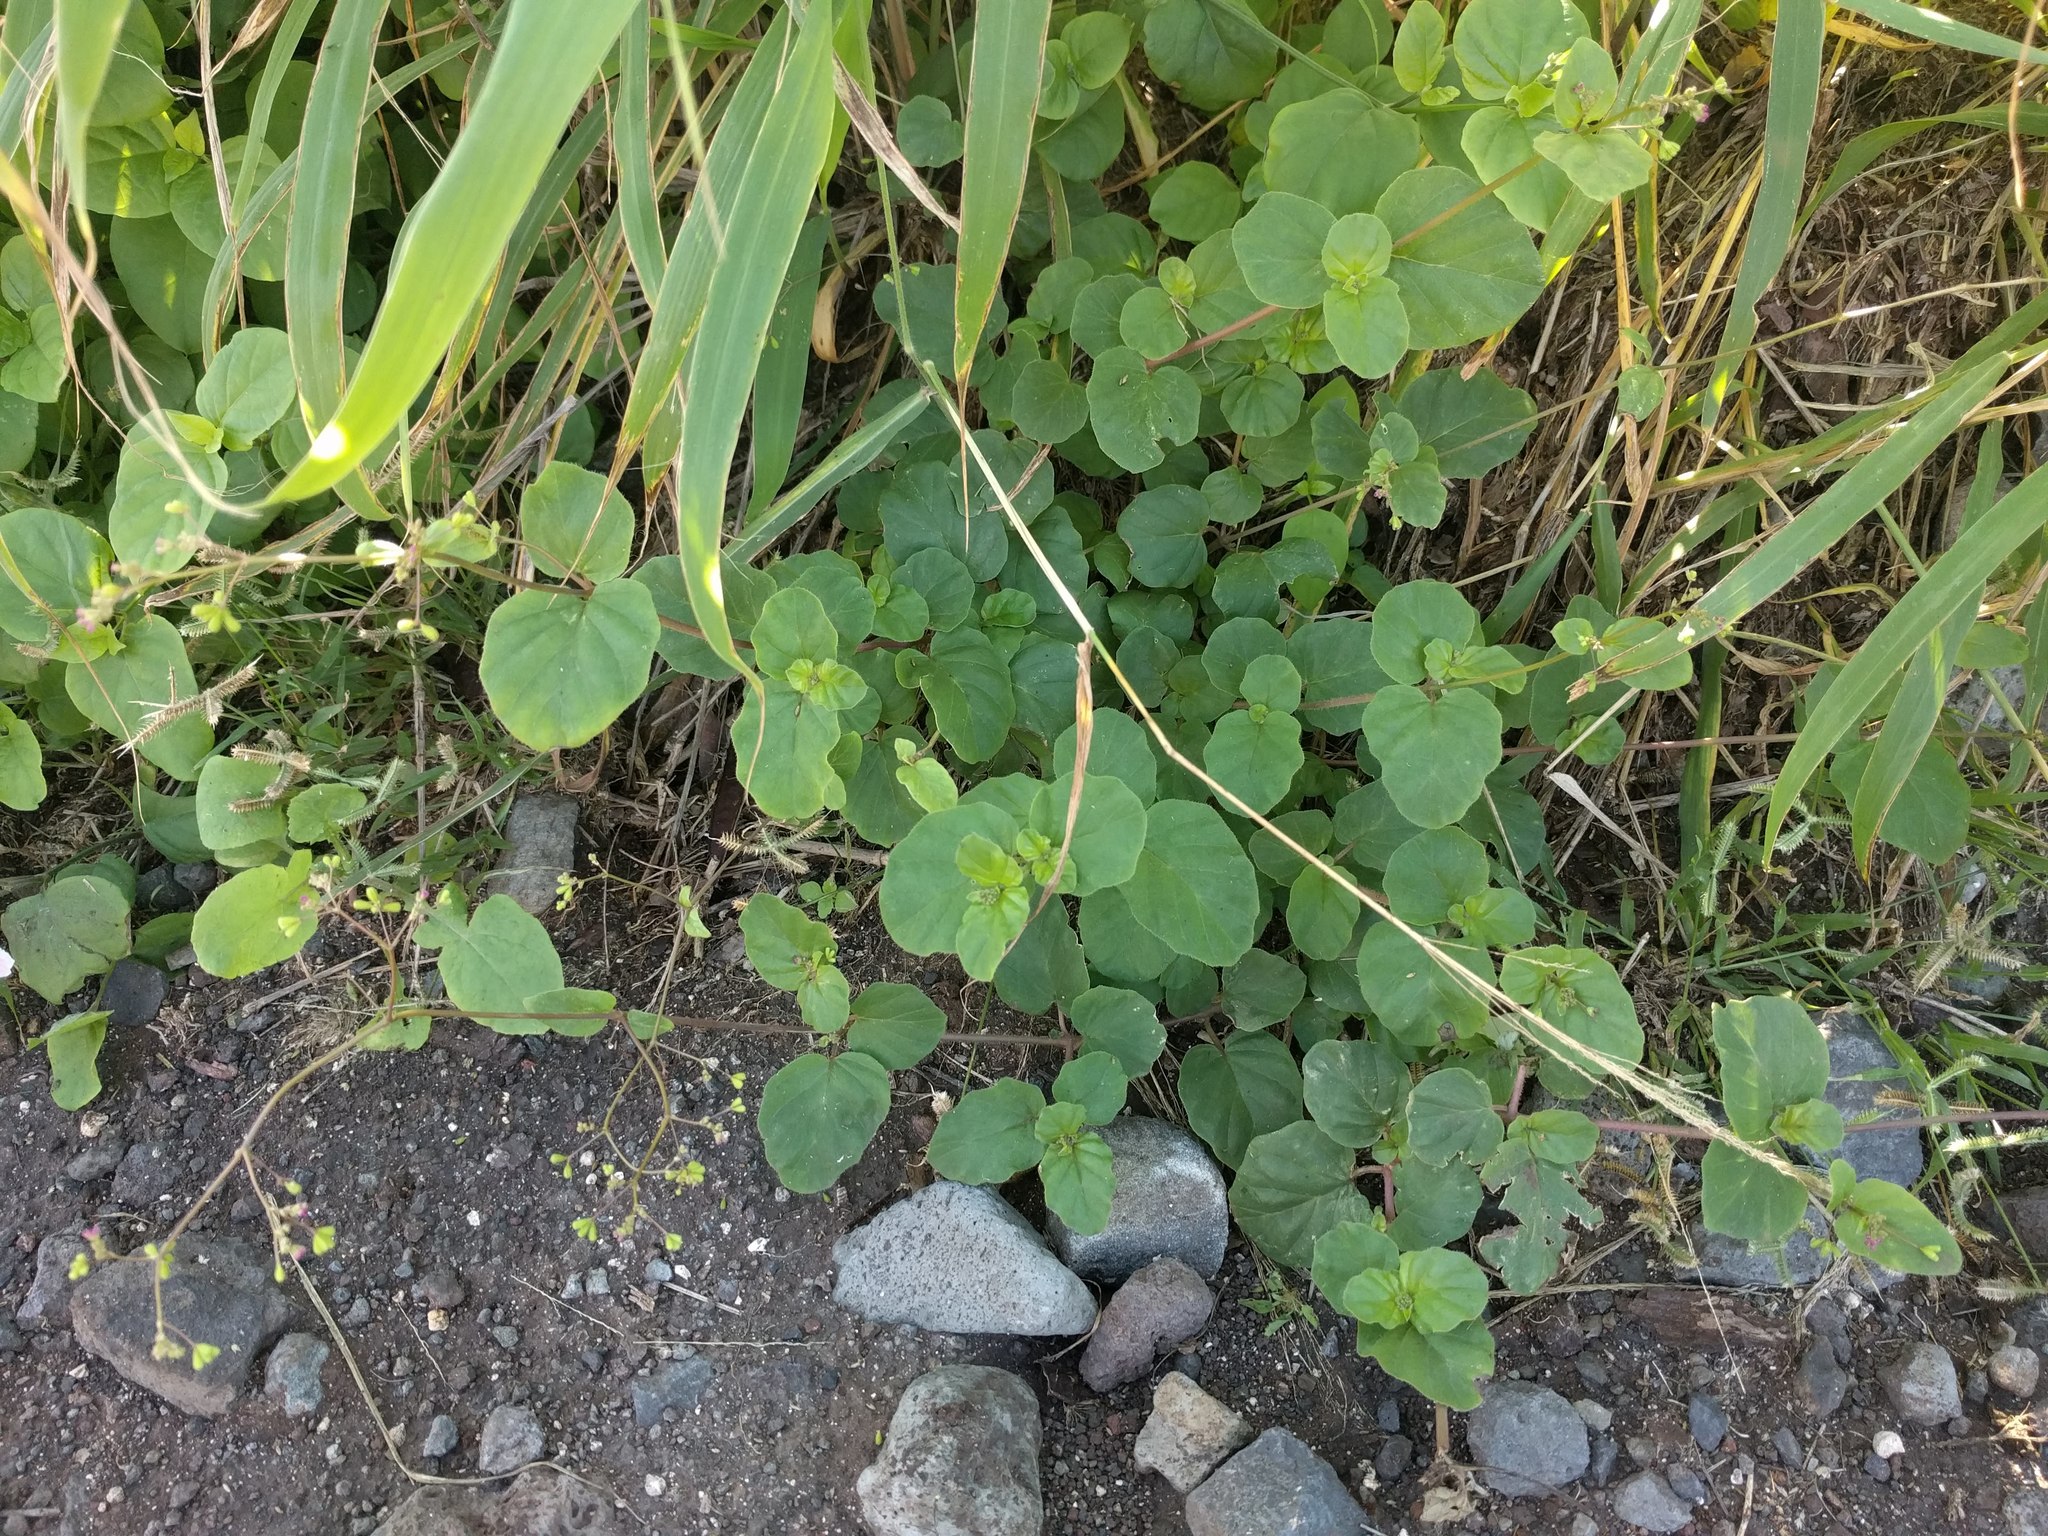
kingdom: Plantae
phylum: Tracheophyta
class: Magnoliopsida
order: Caryophyllales
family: Nyctaginaceae
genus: Boerhavia
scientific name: Boerhavia diffusa
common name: Red spiderling
